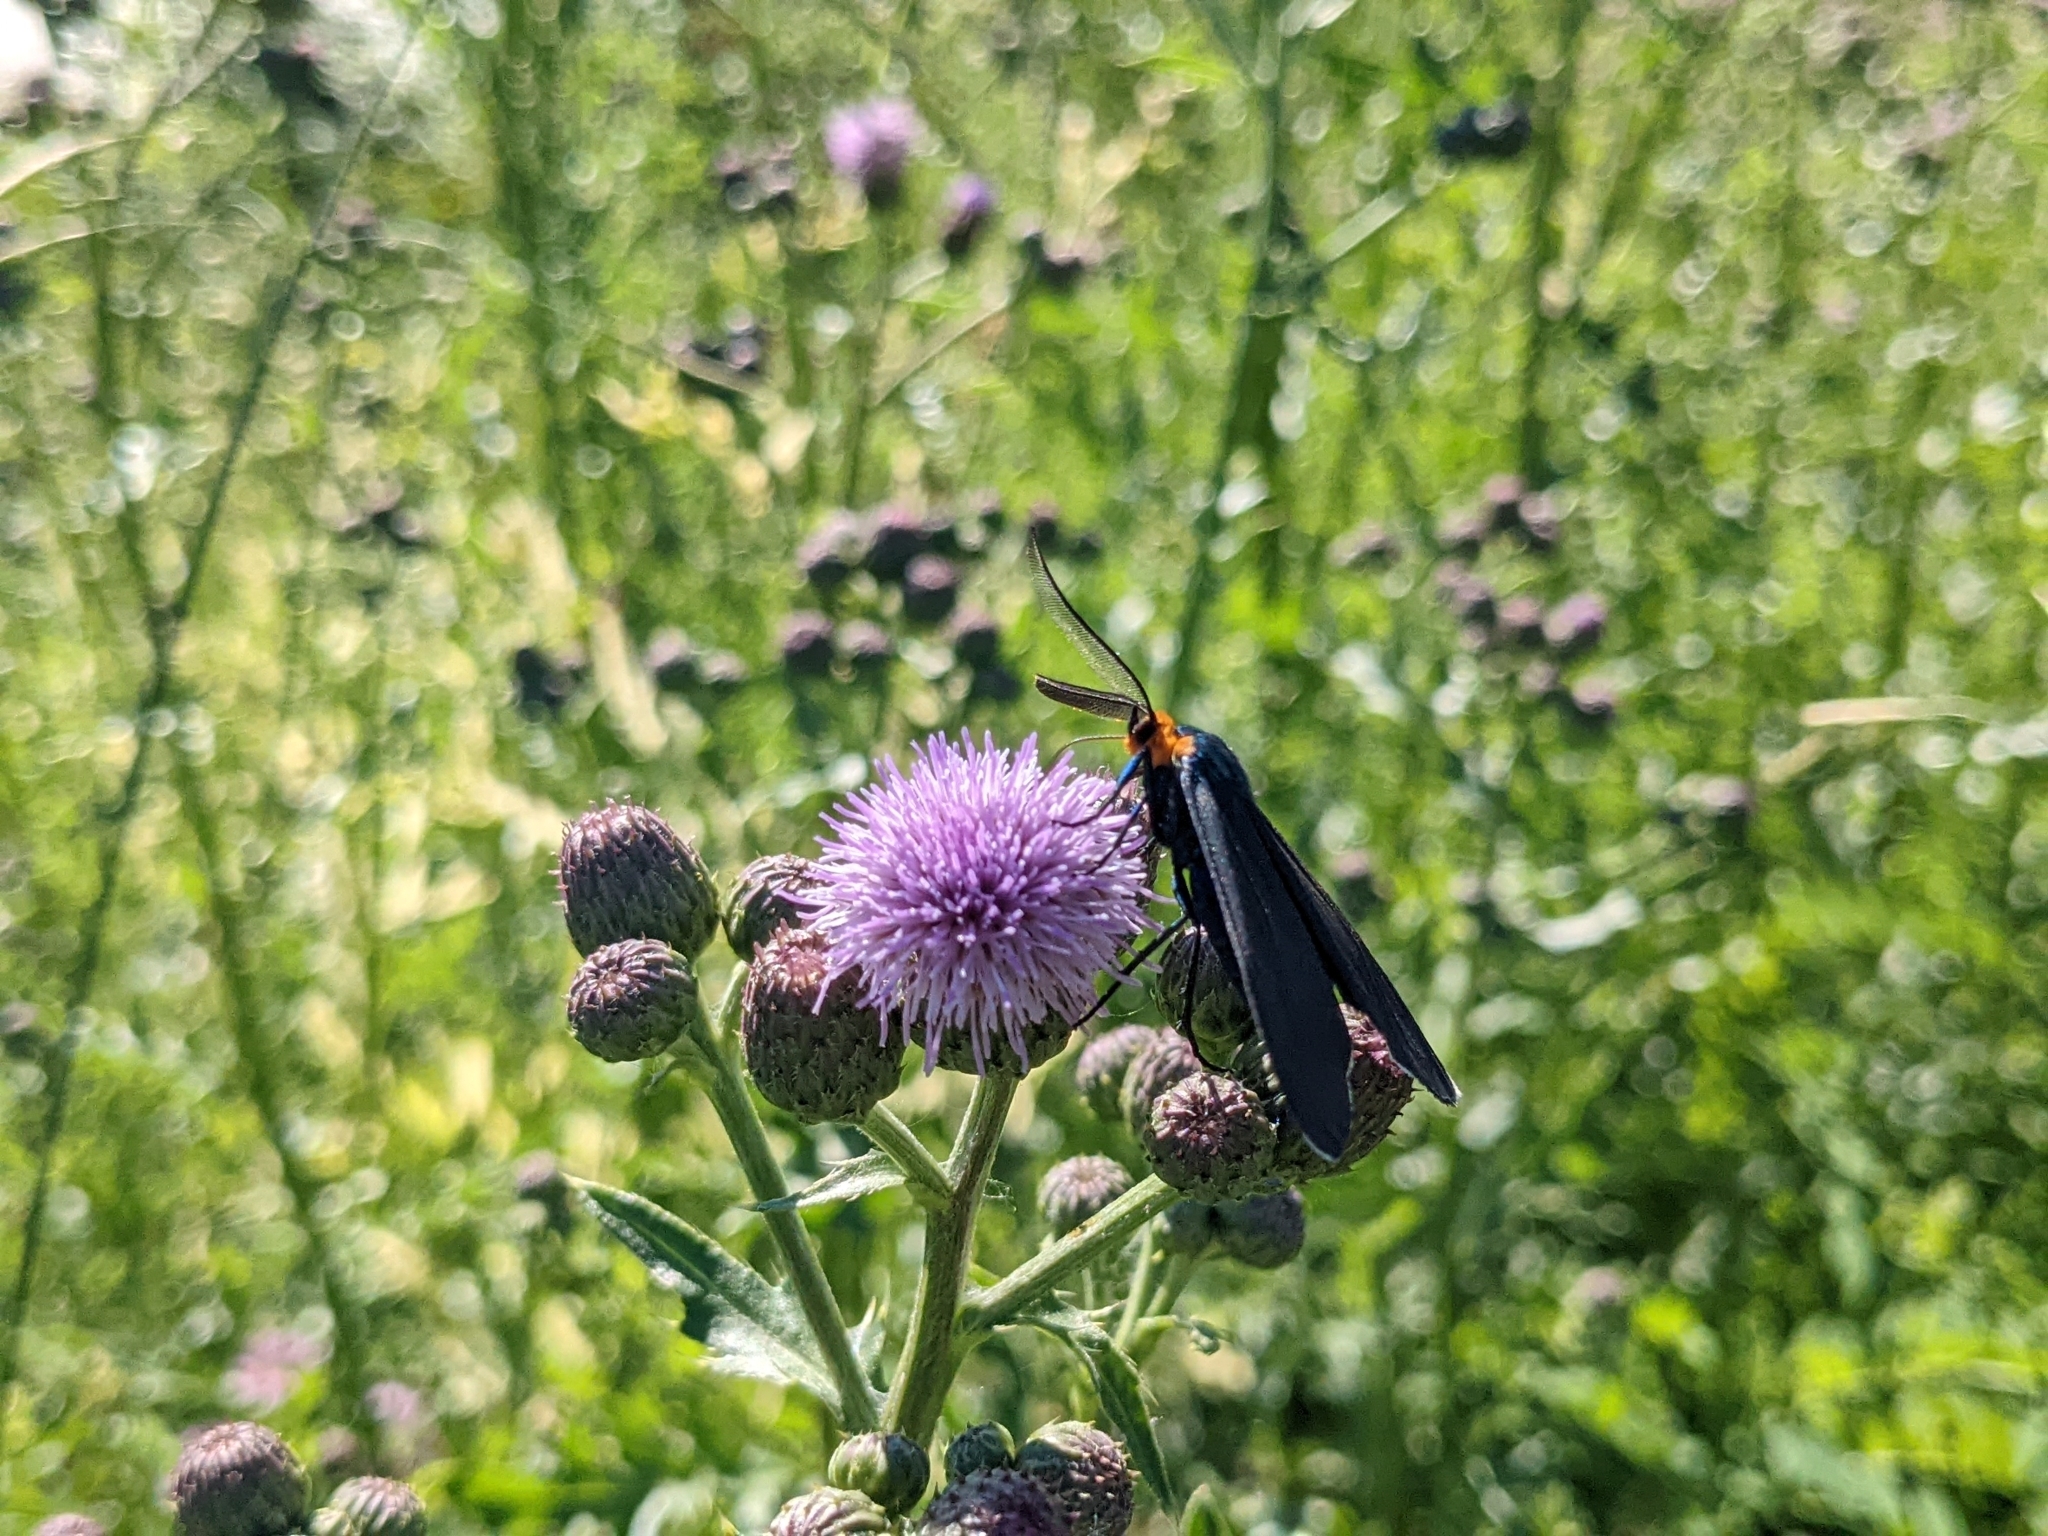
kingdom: Animalia
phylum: Arthropoda
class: Insecta
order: Lepidoptera
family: Erebidae
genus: Ctenucha
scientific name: Ctenucha virginica
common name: Virginia ctenucha moth
